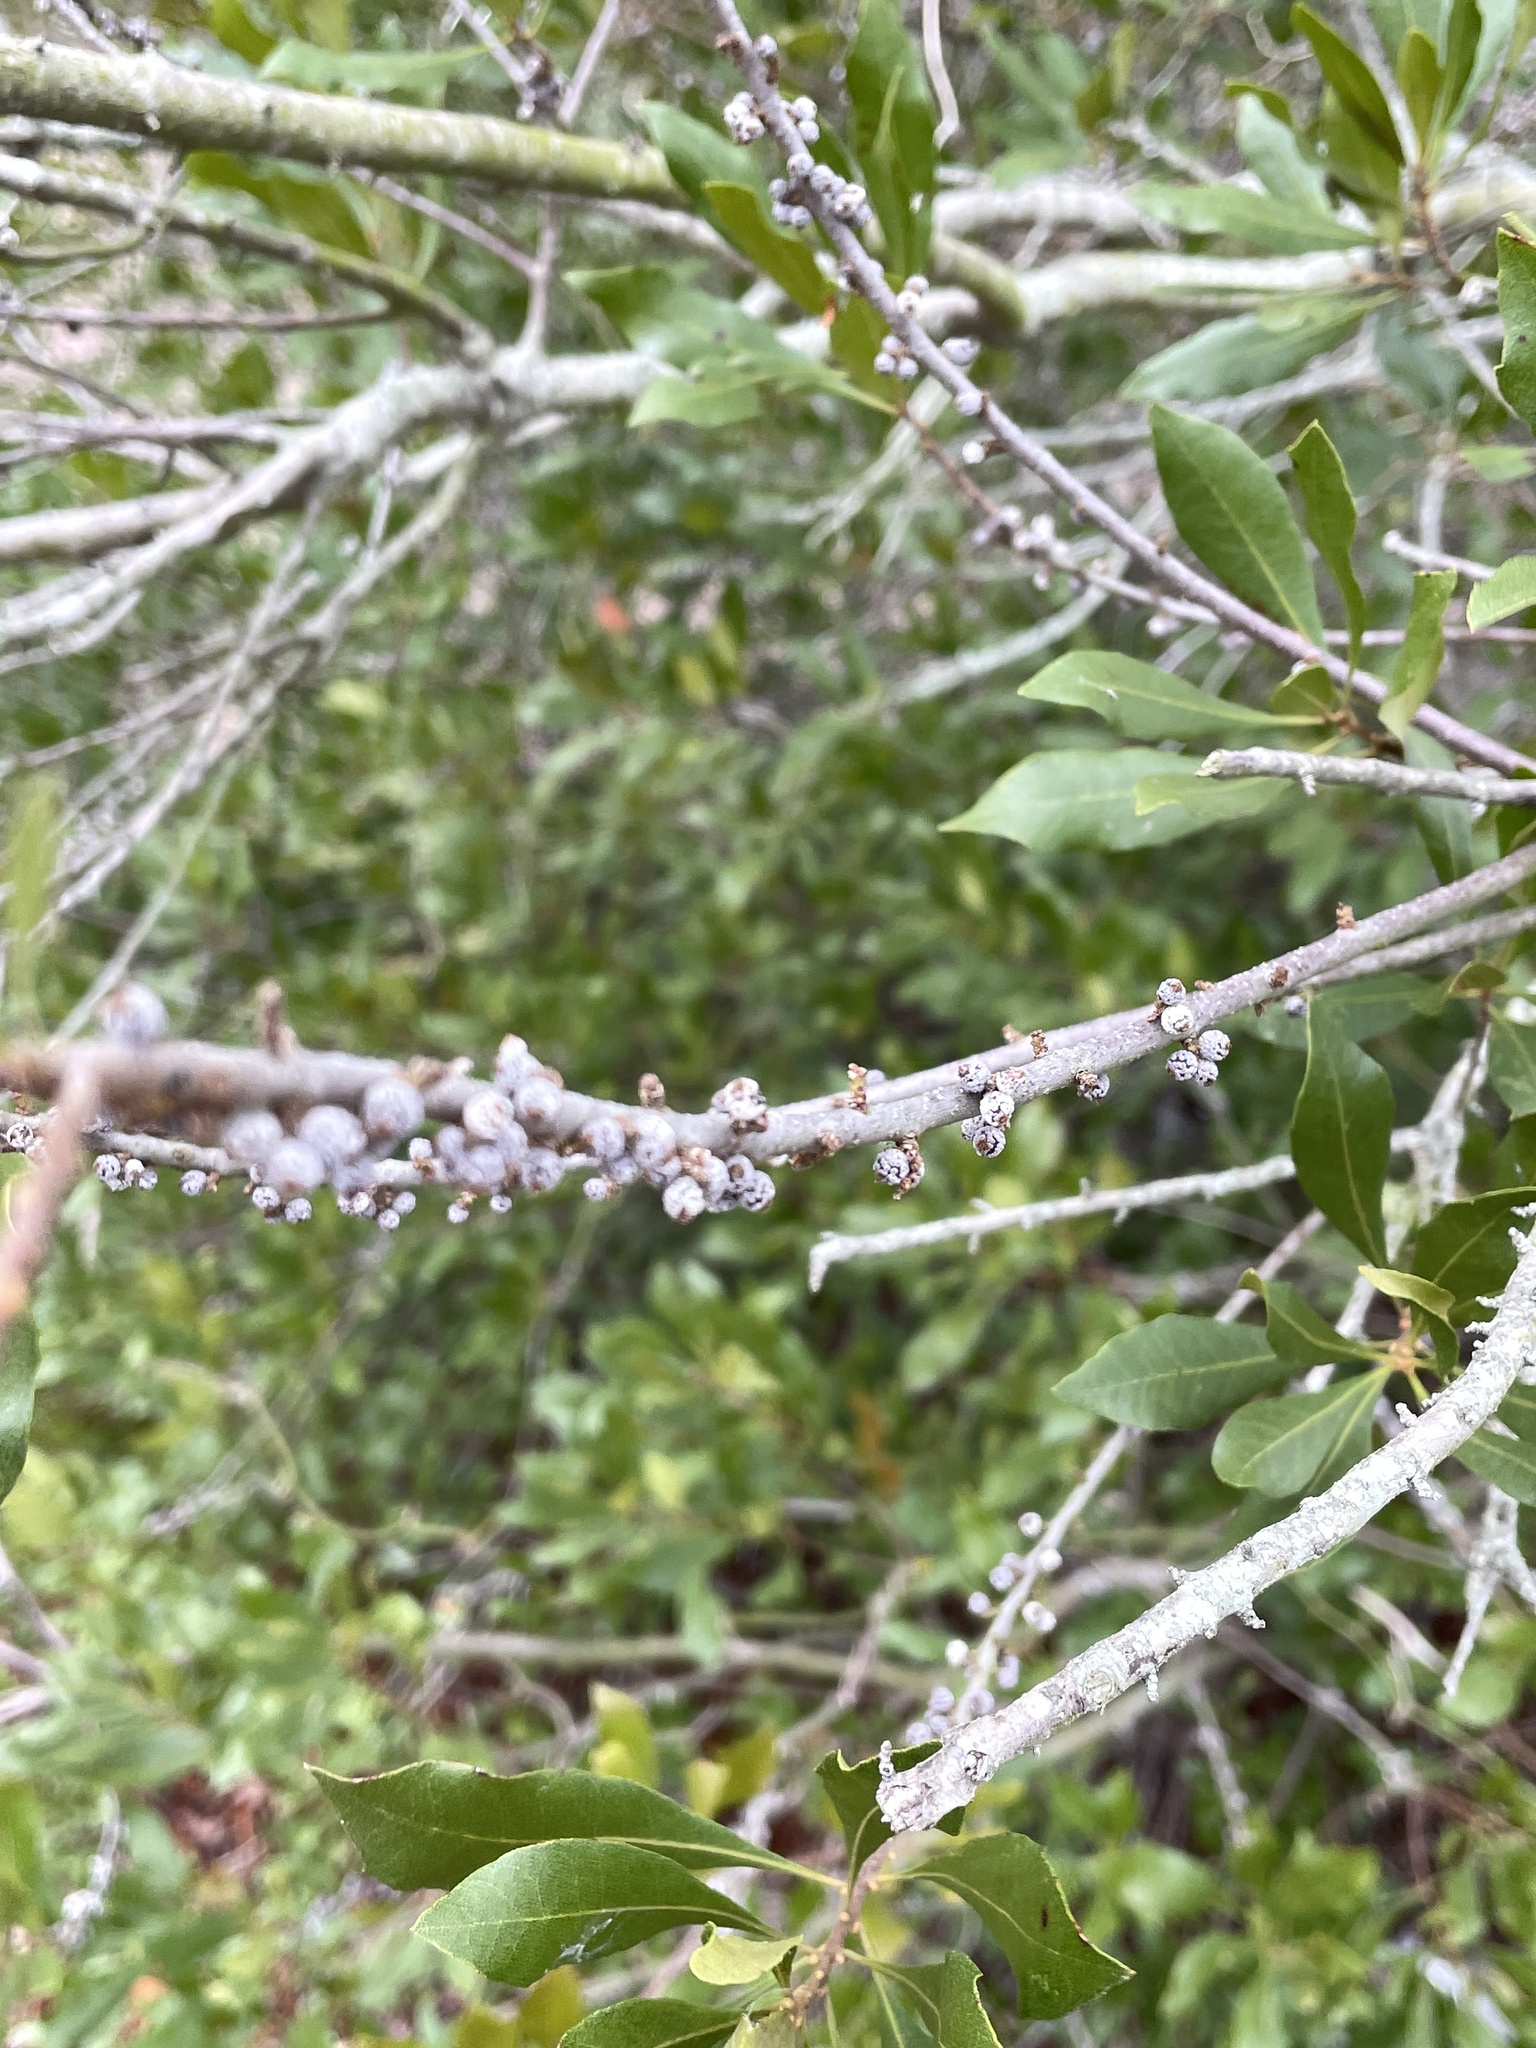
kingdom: Plantae
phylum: Tracheophyta
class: Magnoliopsida
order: Fagales
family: Myricaceae
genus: Morella
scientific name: Morella cerifera
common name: Wax myrtle
